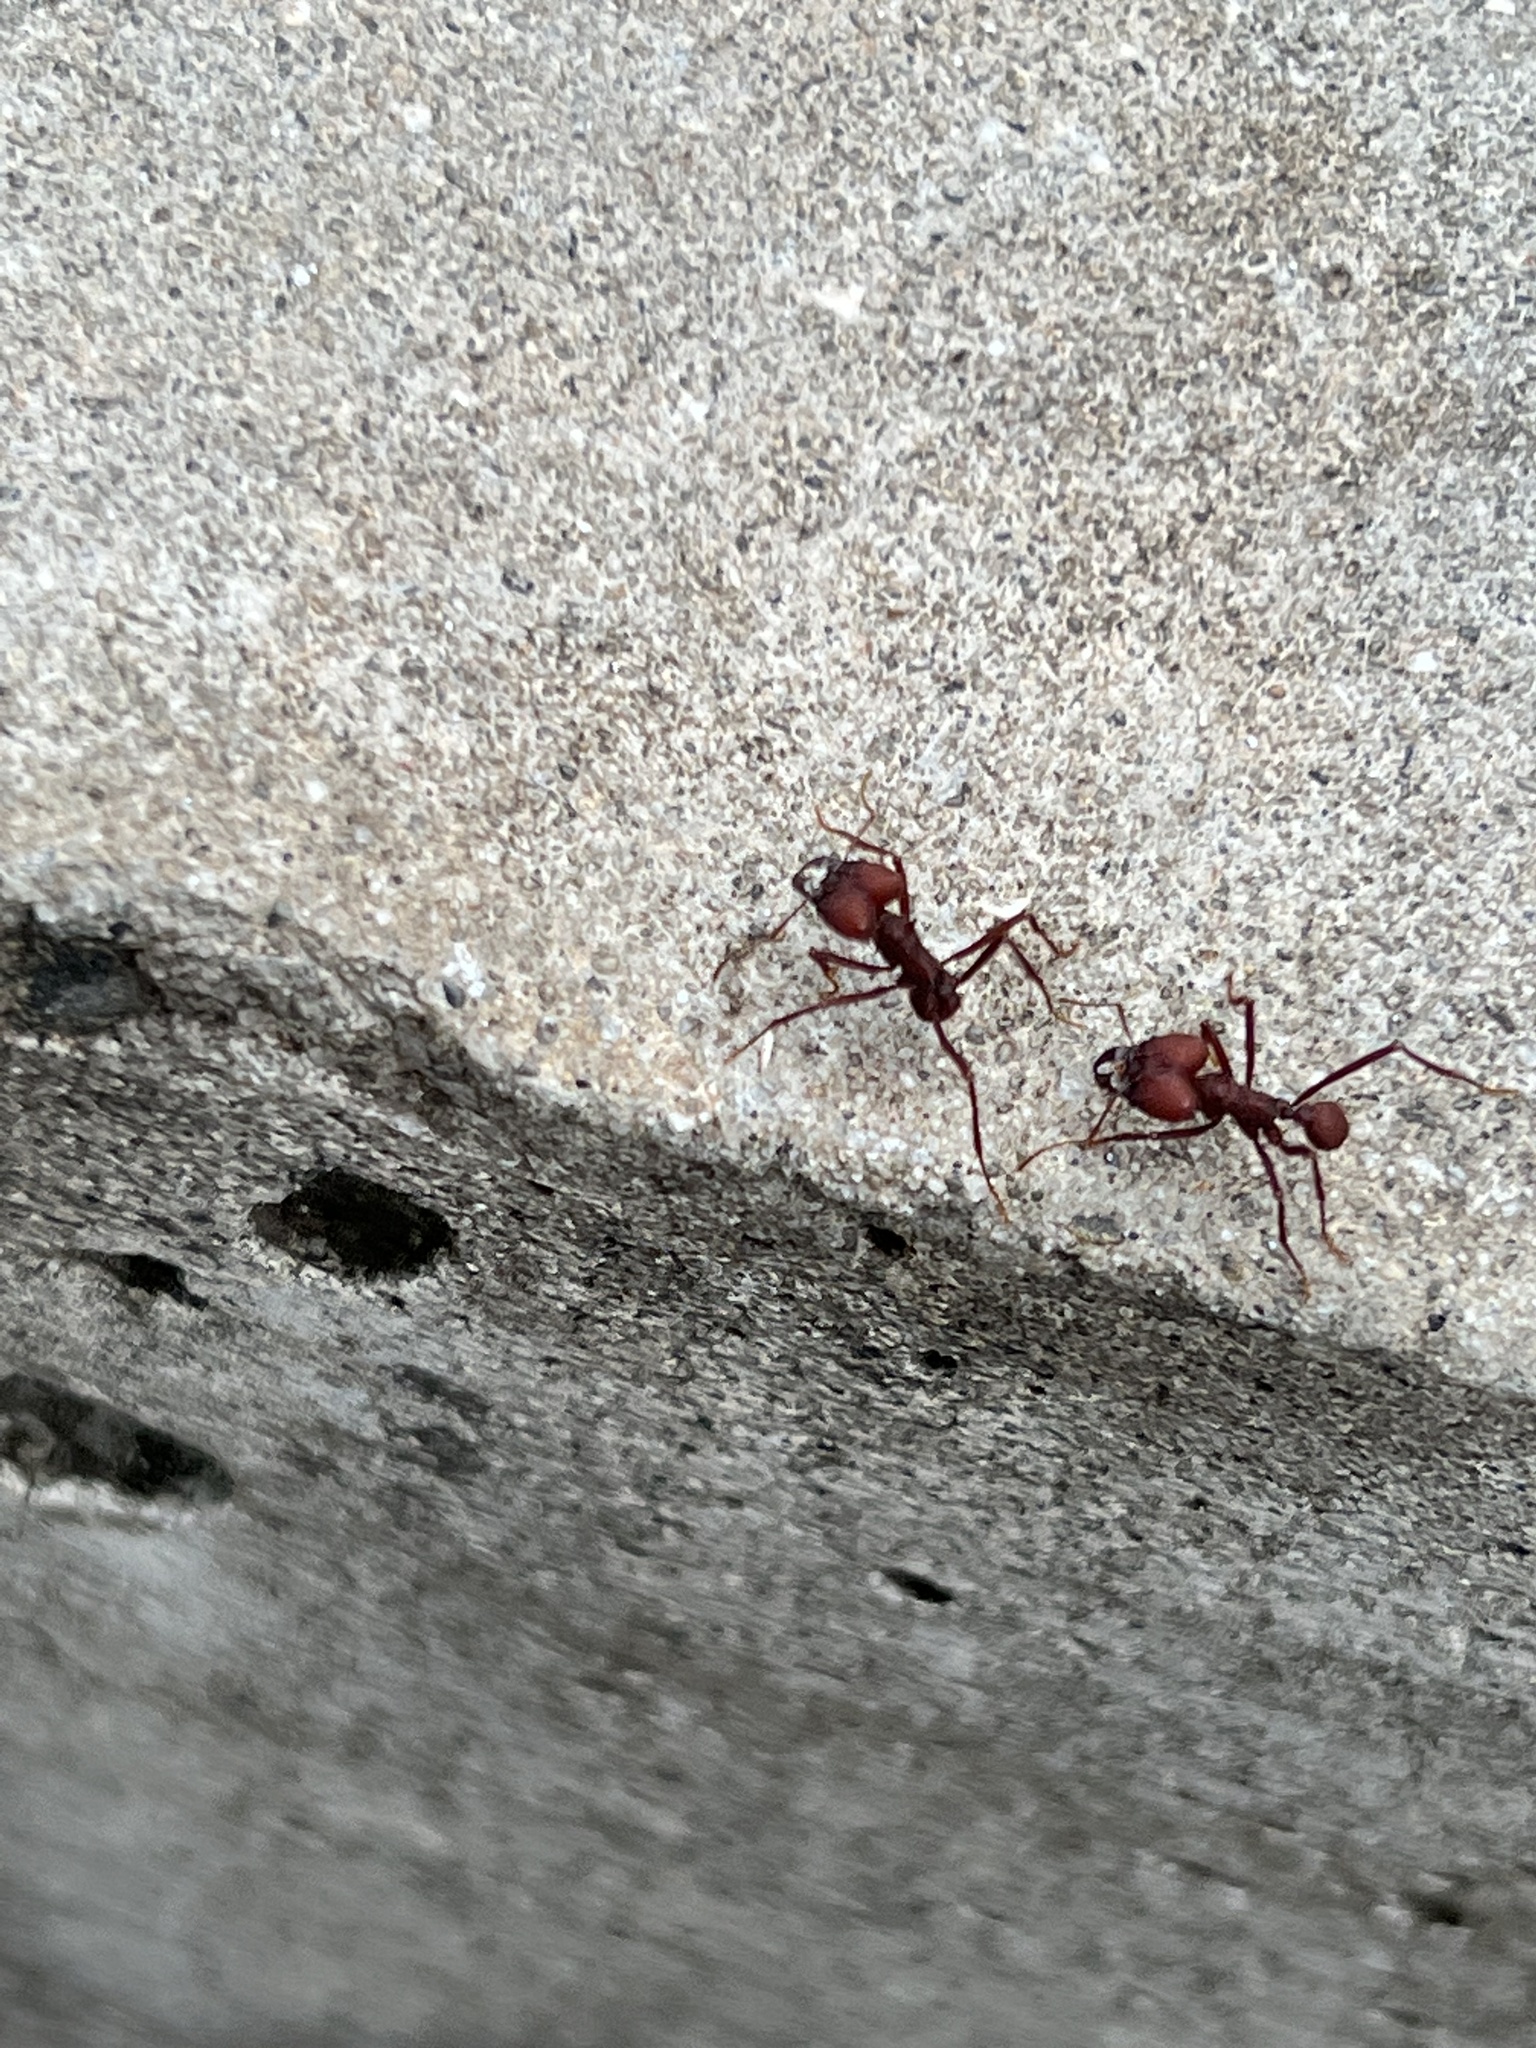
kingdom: Animalia
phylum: Arthropoda
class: Insecta
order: Hymenoptera
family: Formicidae
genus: Atta
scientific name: Atta sexdens
